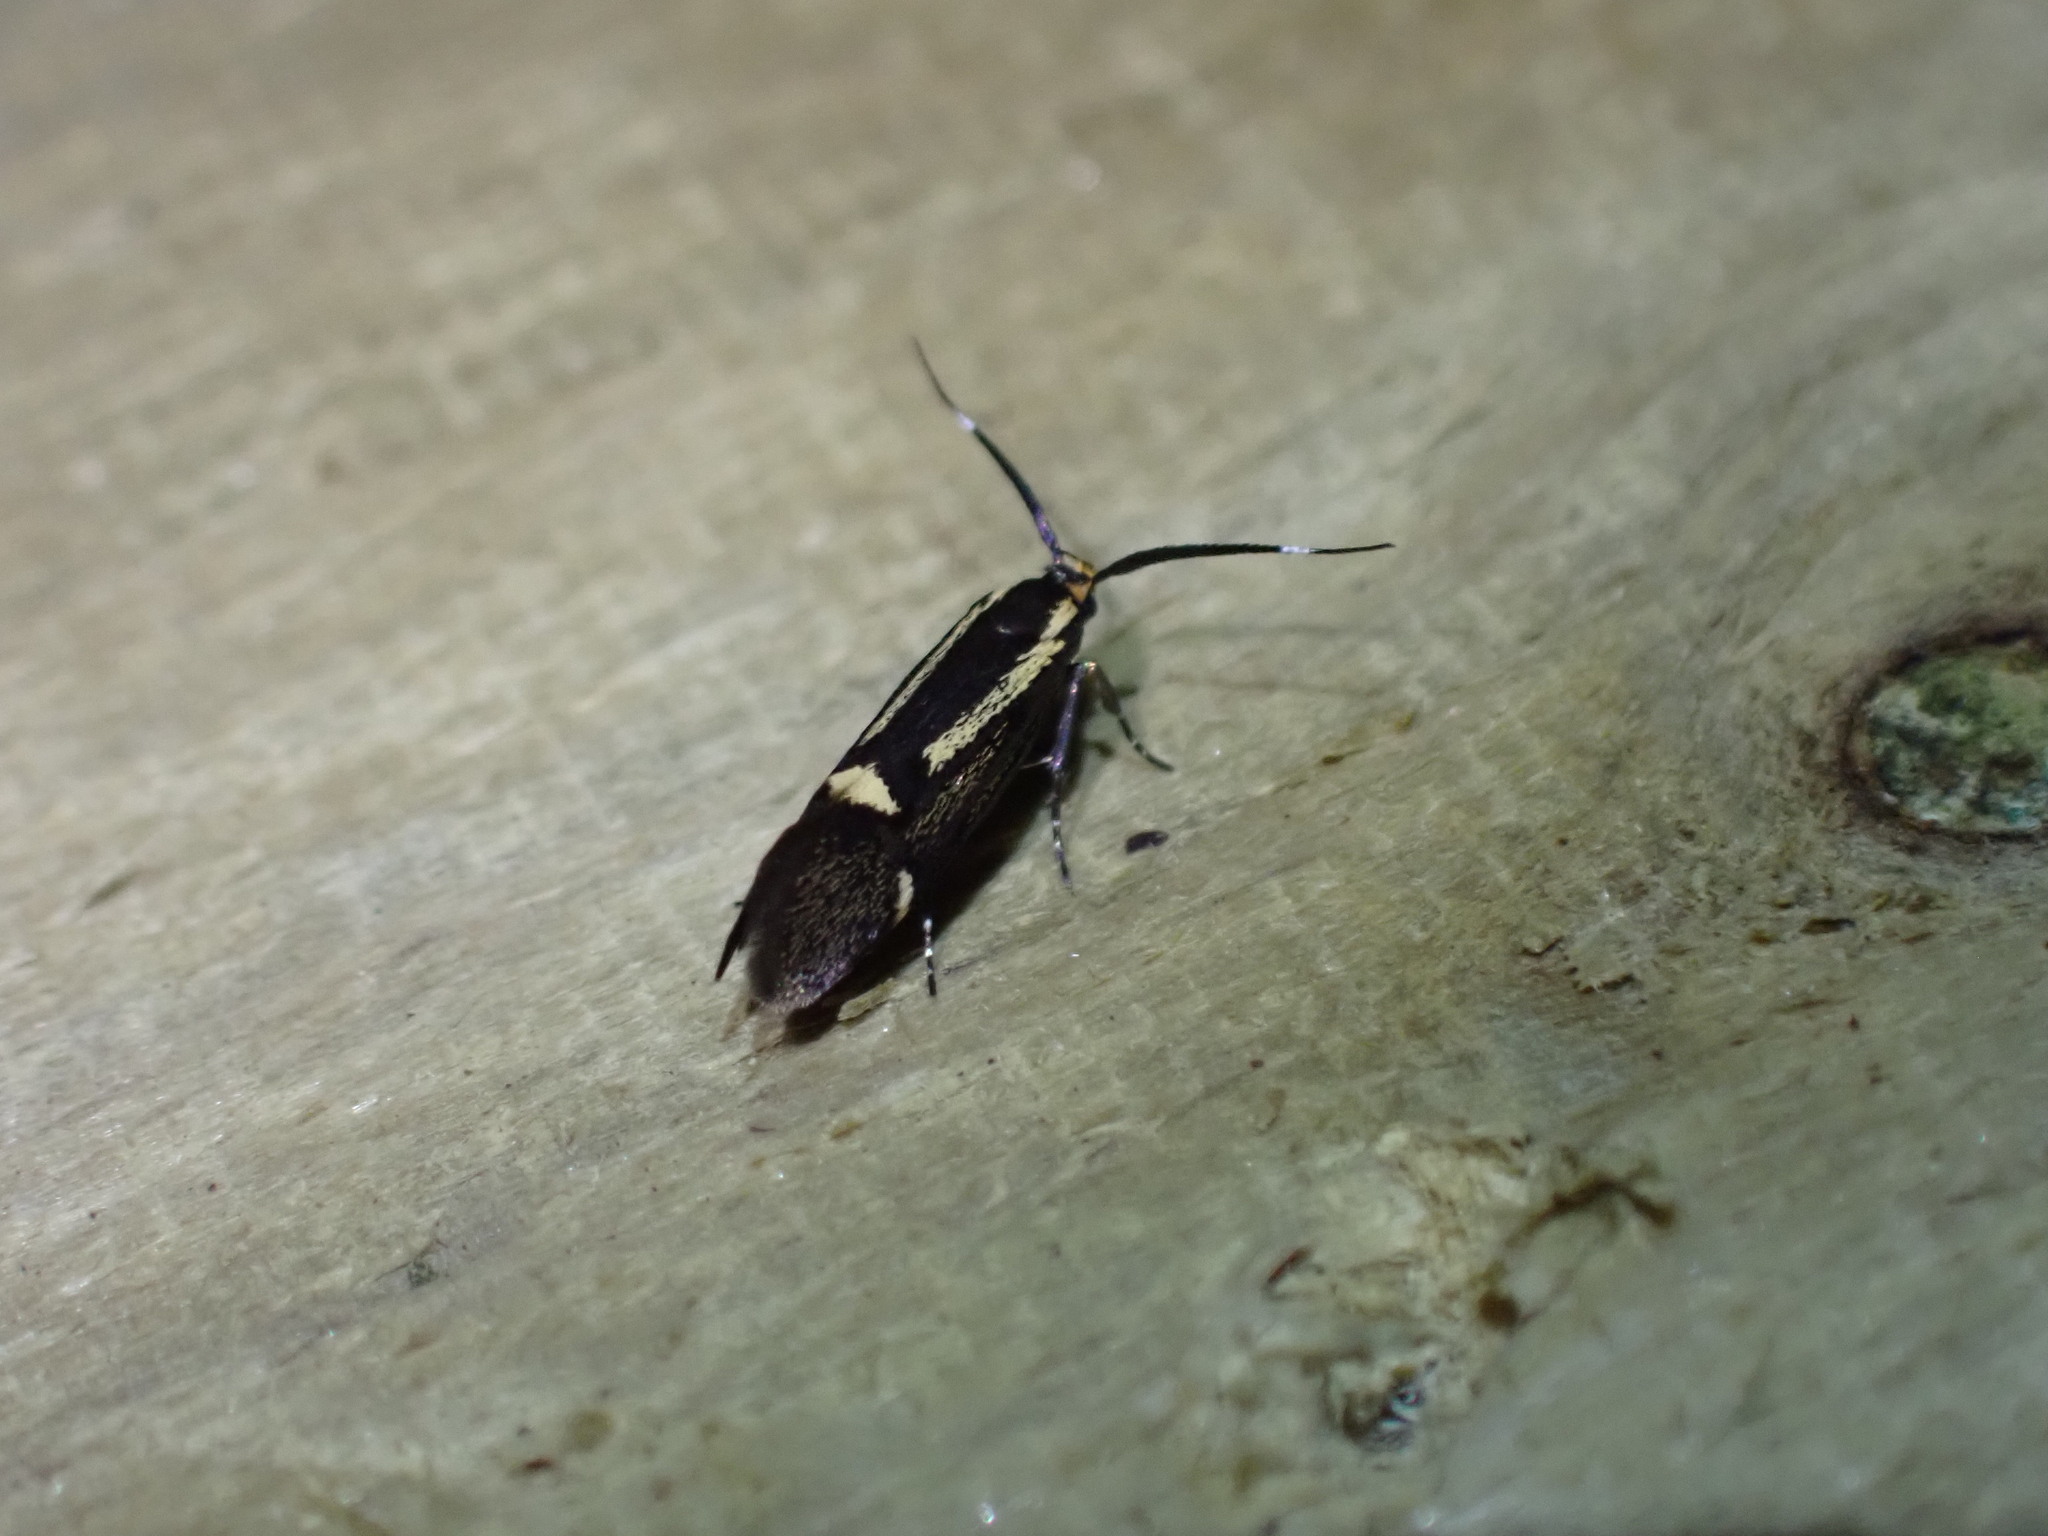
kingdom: Animalia
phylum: Arthropoda
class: Insecta
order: Lepidoptera
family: Oecophoridae
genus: Dafa
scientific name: Dafa Esperia sulphurella
